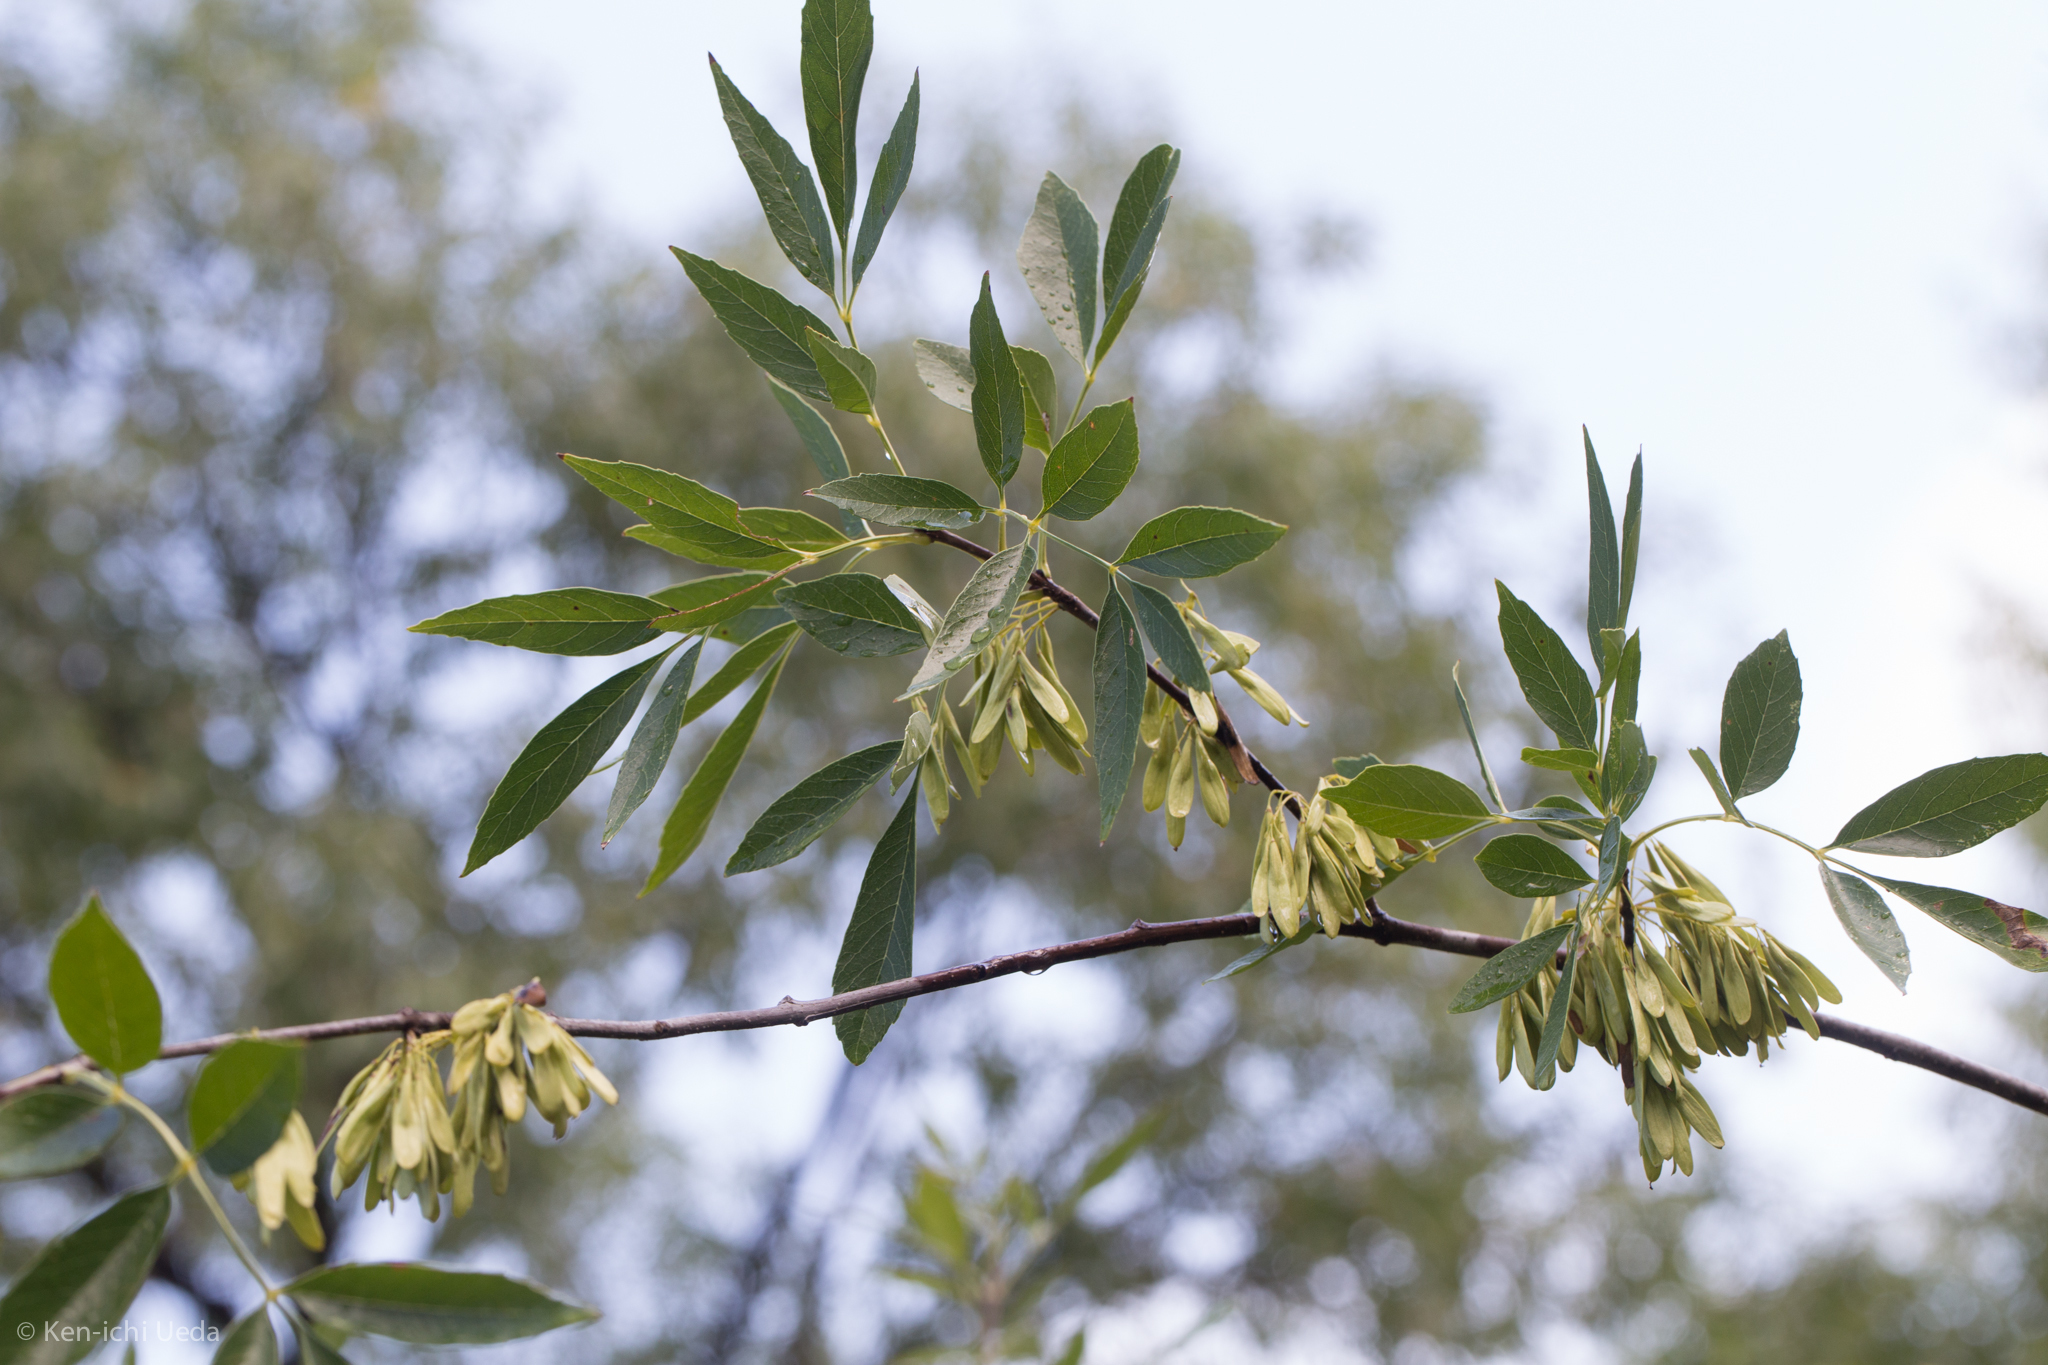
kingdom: Plantae
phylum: Tracheophyta
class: Magnoliopsida
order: Lamiales
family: Oleaceae
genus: Fraxinus
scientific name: Fraxinus velutina
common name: Arizon ash
